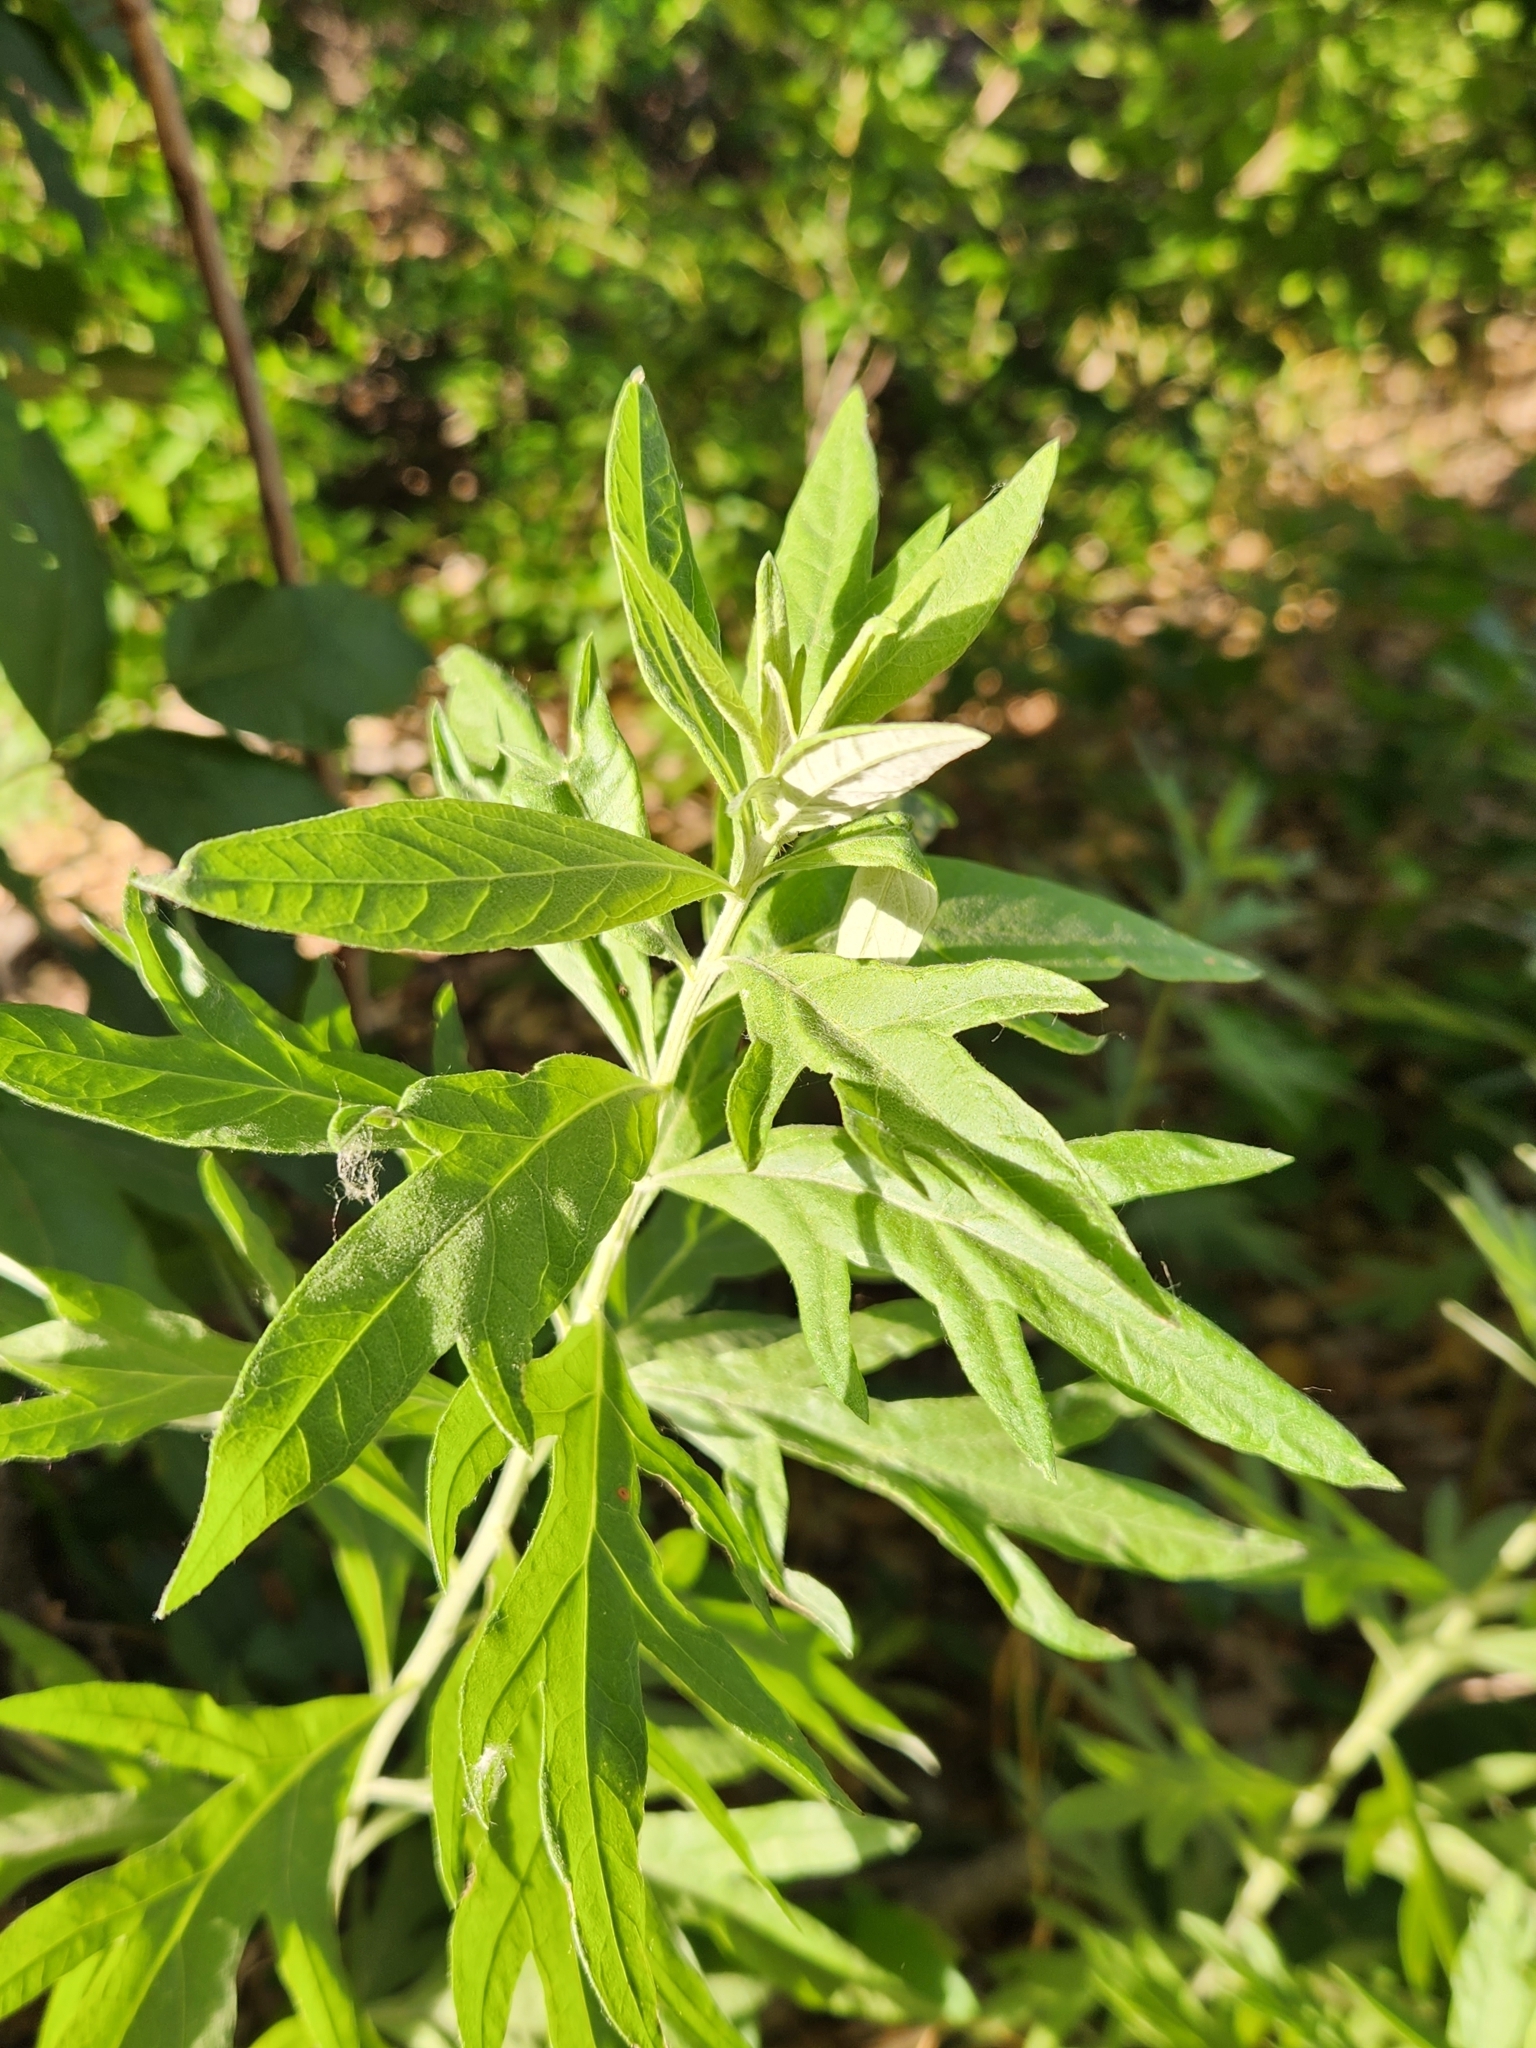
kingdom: Plantae
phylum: Tracheophyta
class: Magnoliopsida
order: Asterales
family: Asteraceae
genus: Artemisia
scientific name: Artemisia douglasiana
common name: Northwest mugwort
